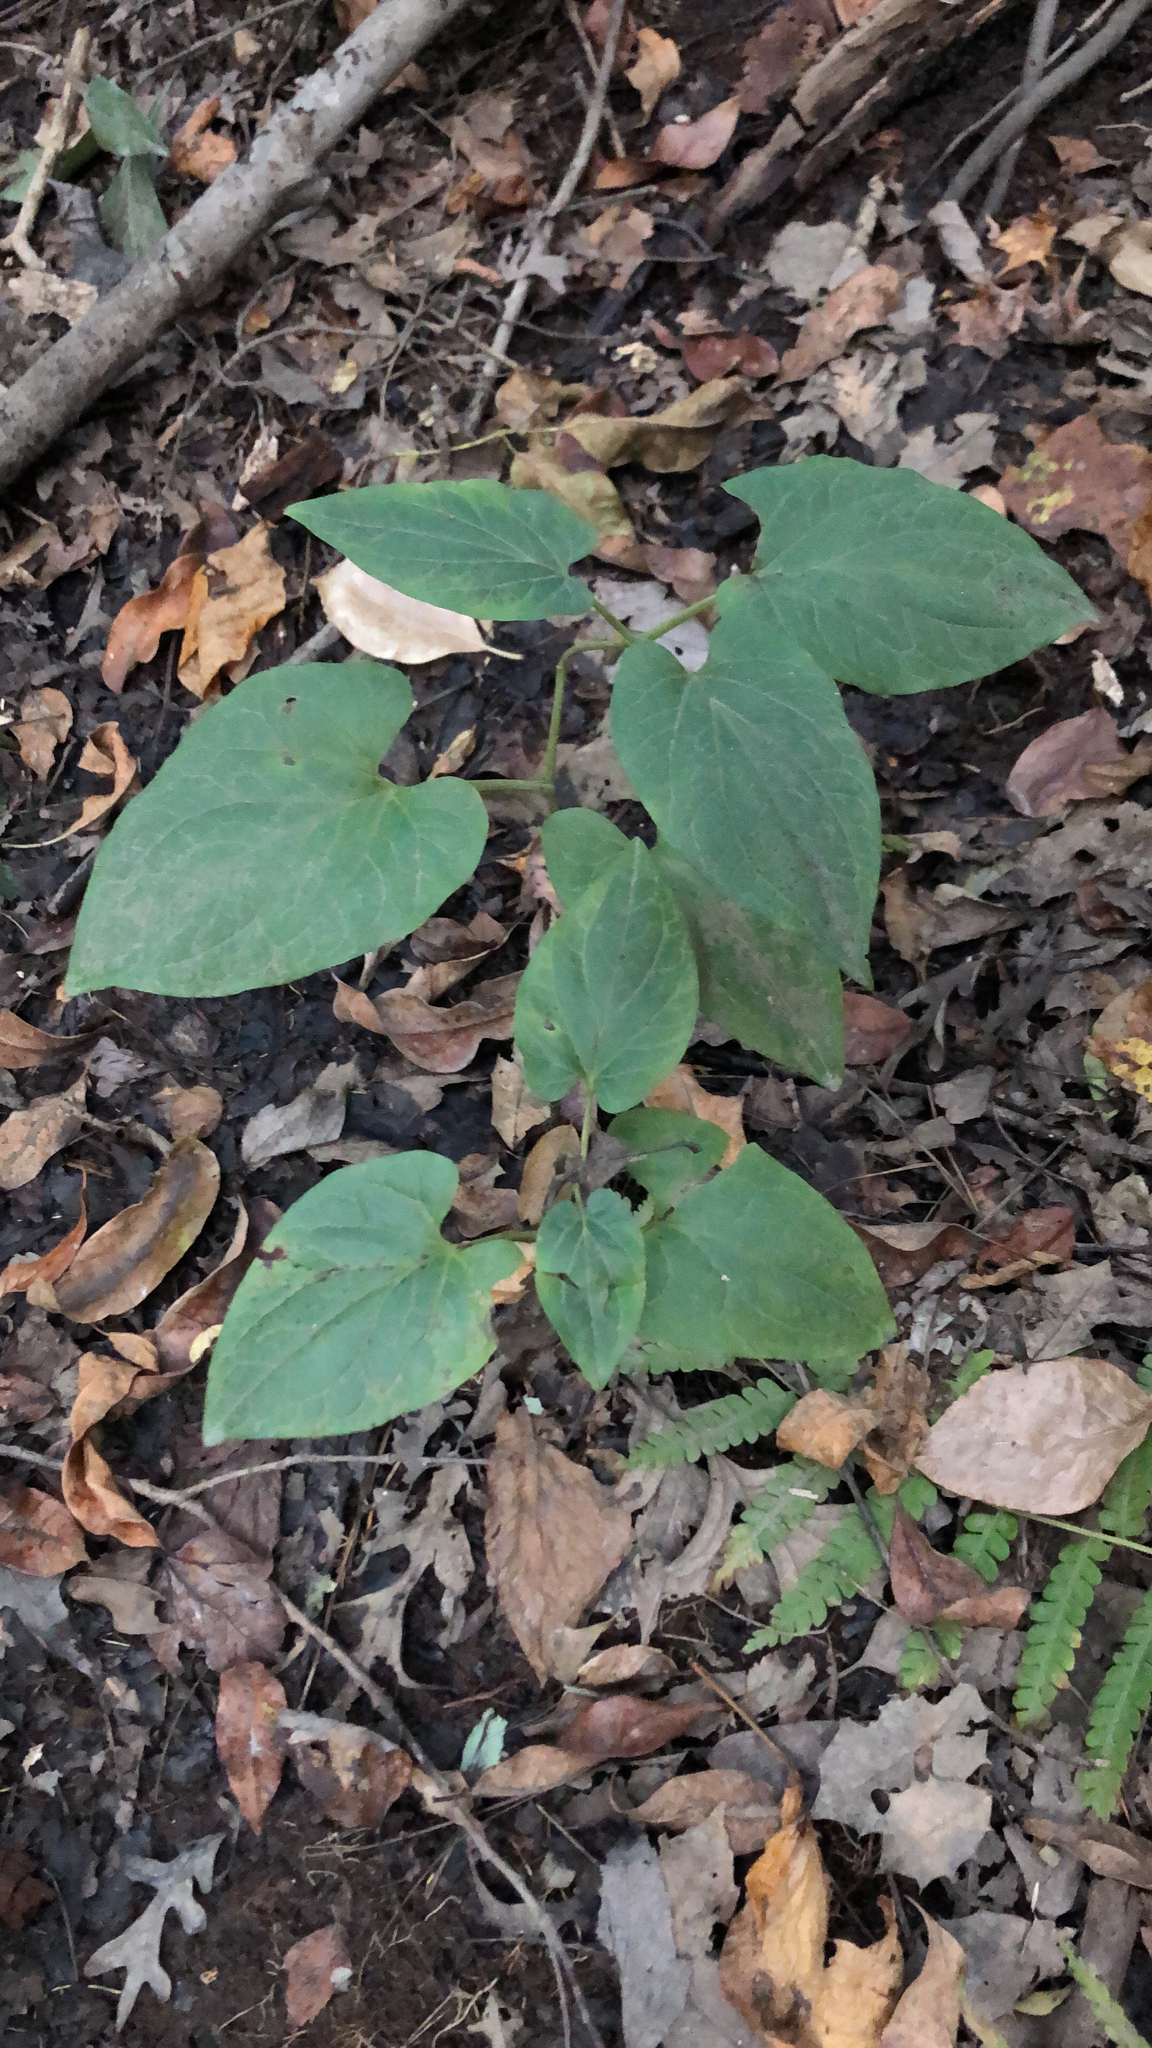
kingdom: Plantae
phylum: Tracheophyta
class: Magnoliopsida
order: Piperales
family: Saururaceae
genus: Saururus
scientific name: Saururus cernuus
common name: Lizard's-tail
